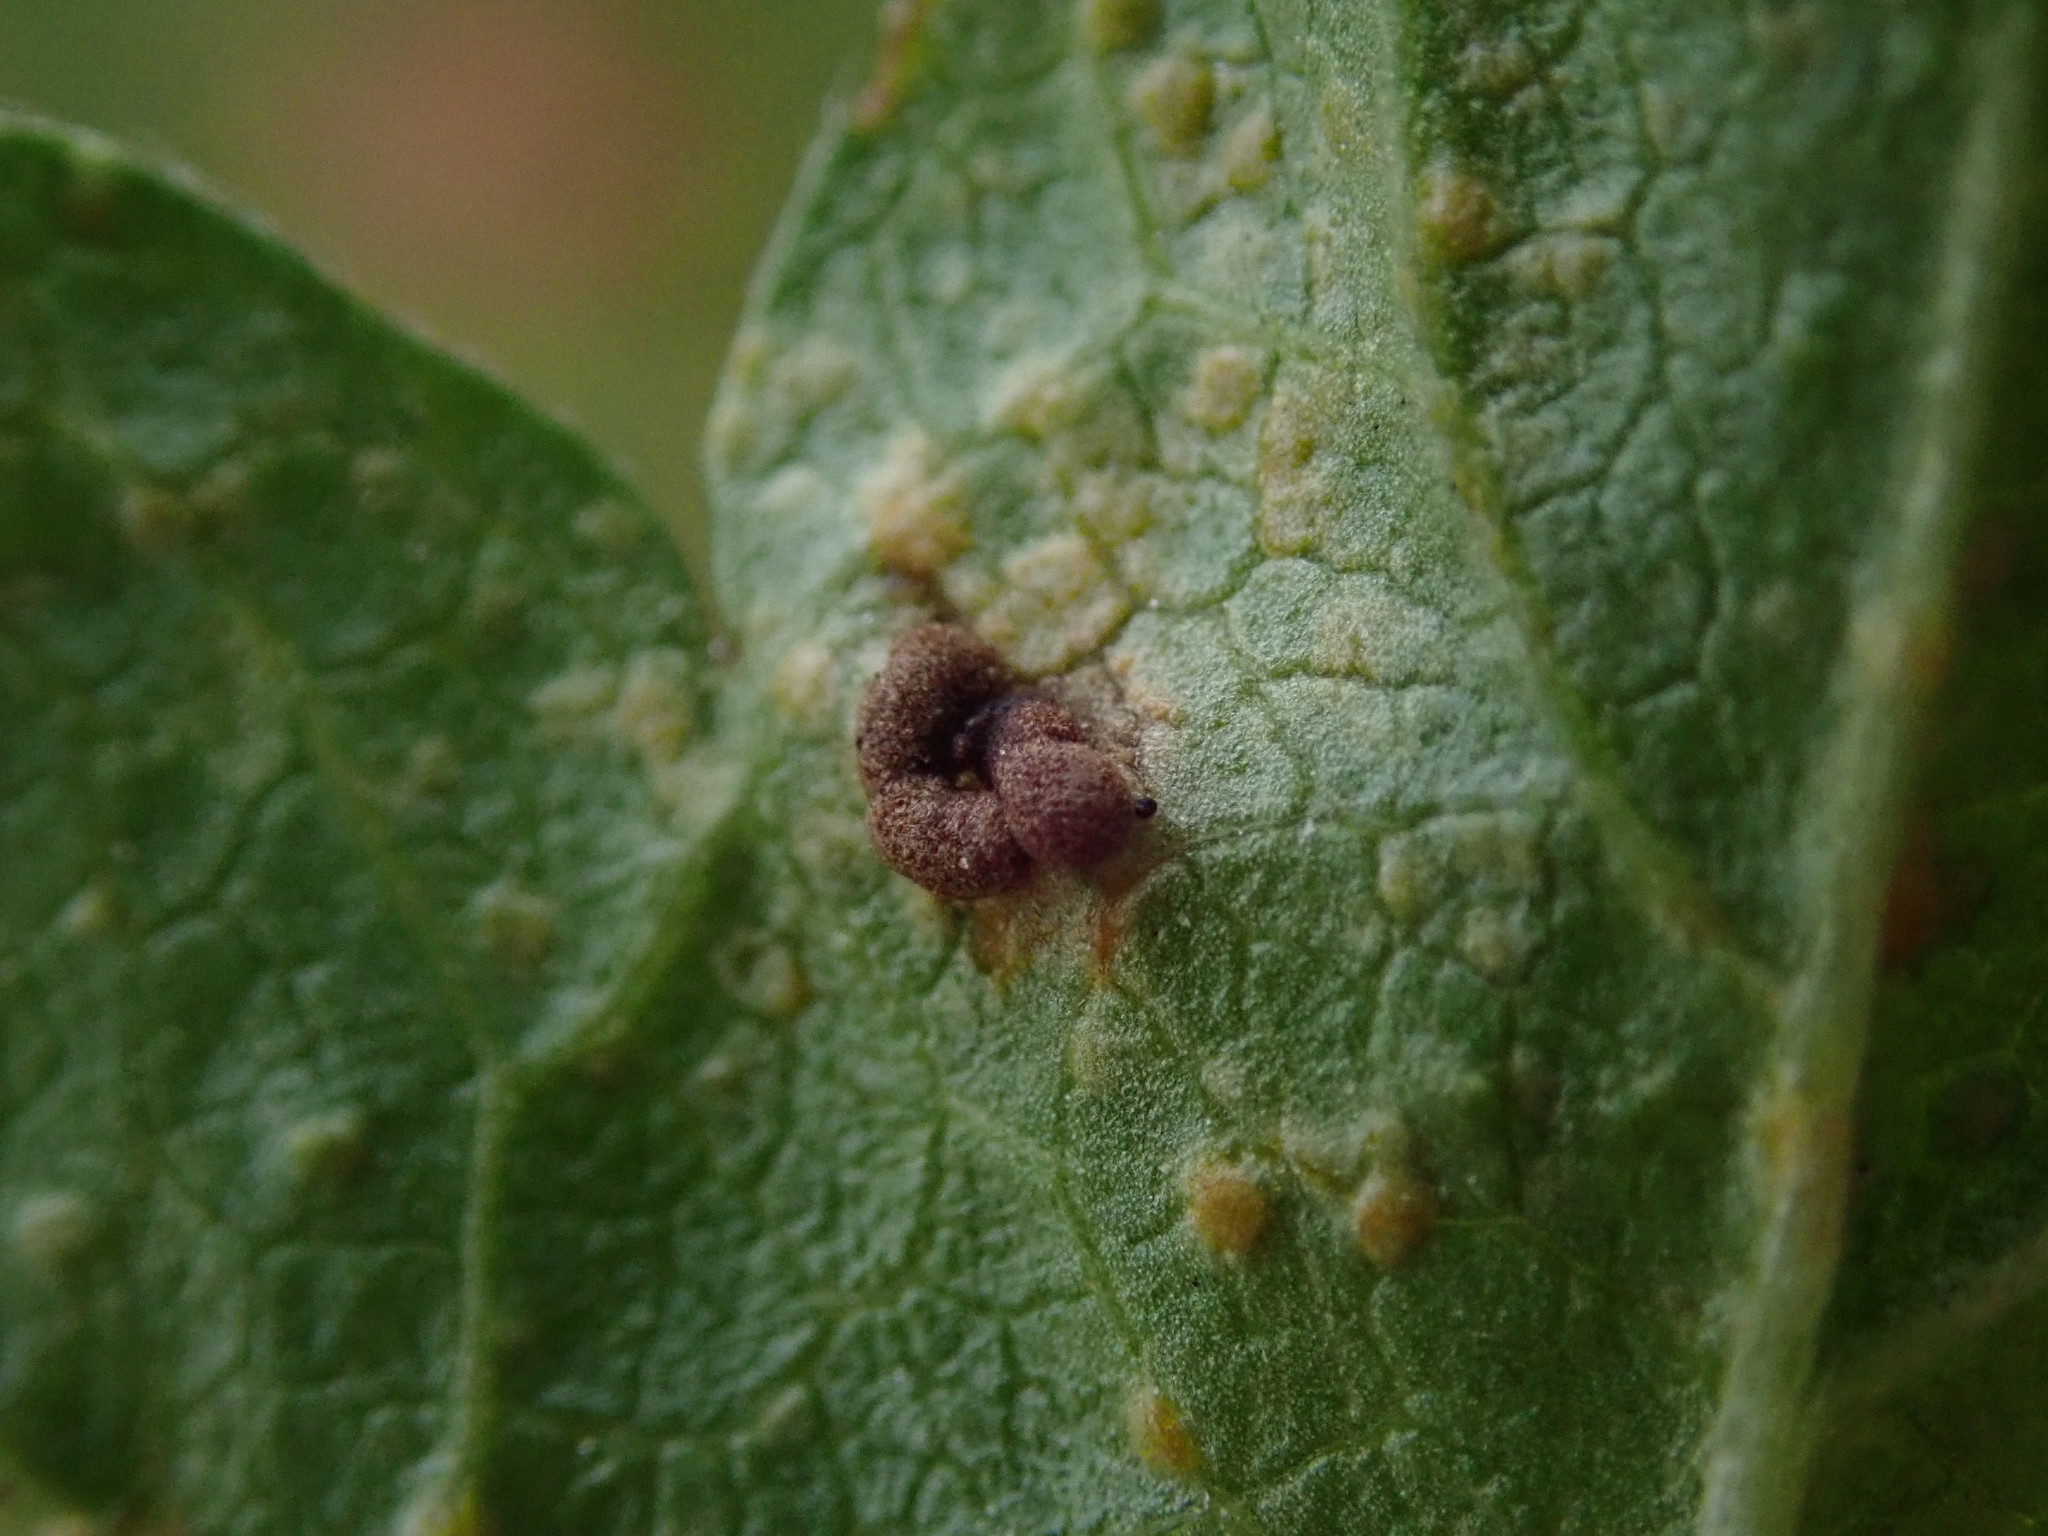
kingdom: Fungi
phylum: Basidiomycota
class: Pucciniomycetes
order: Pucciniales
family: Pucciniaceae
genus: Puccinia
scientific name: Puccinia malvacearum
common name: Hollyhock rust
